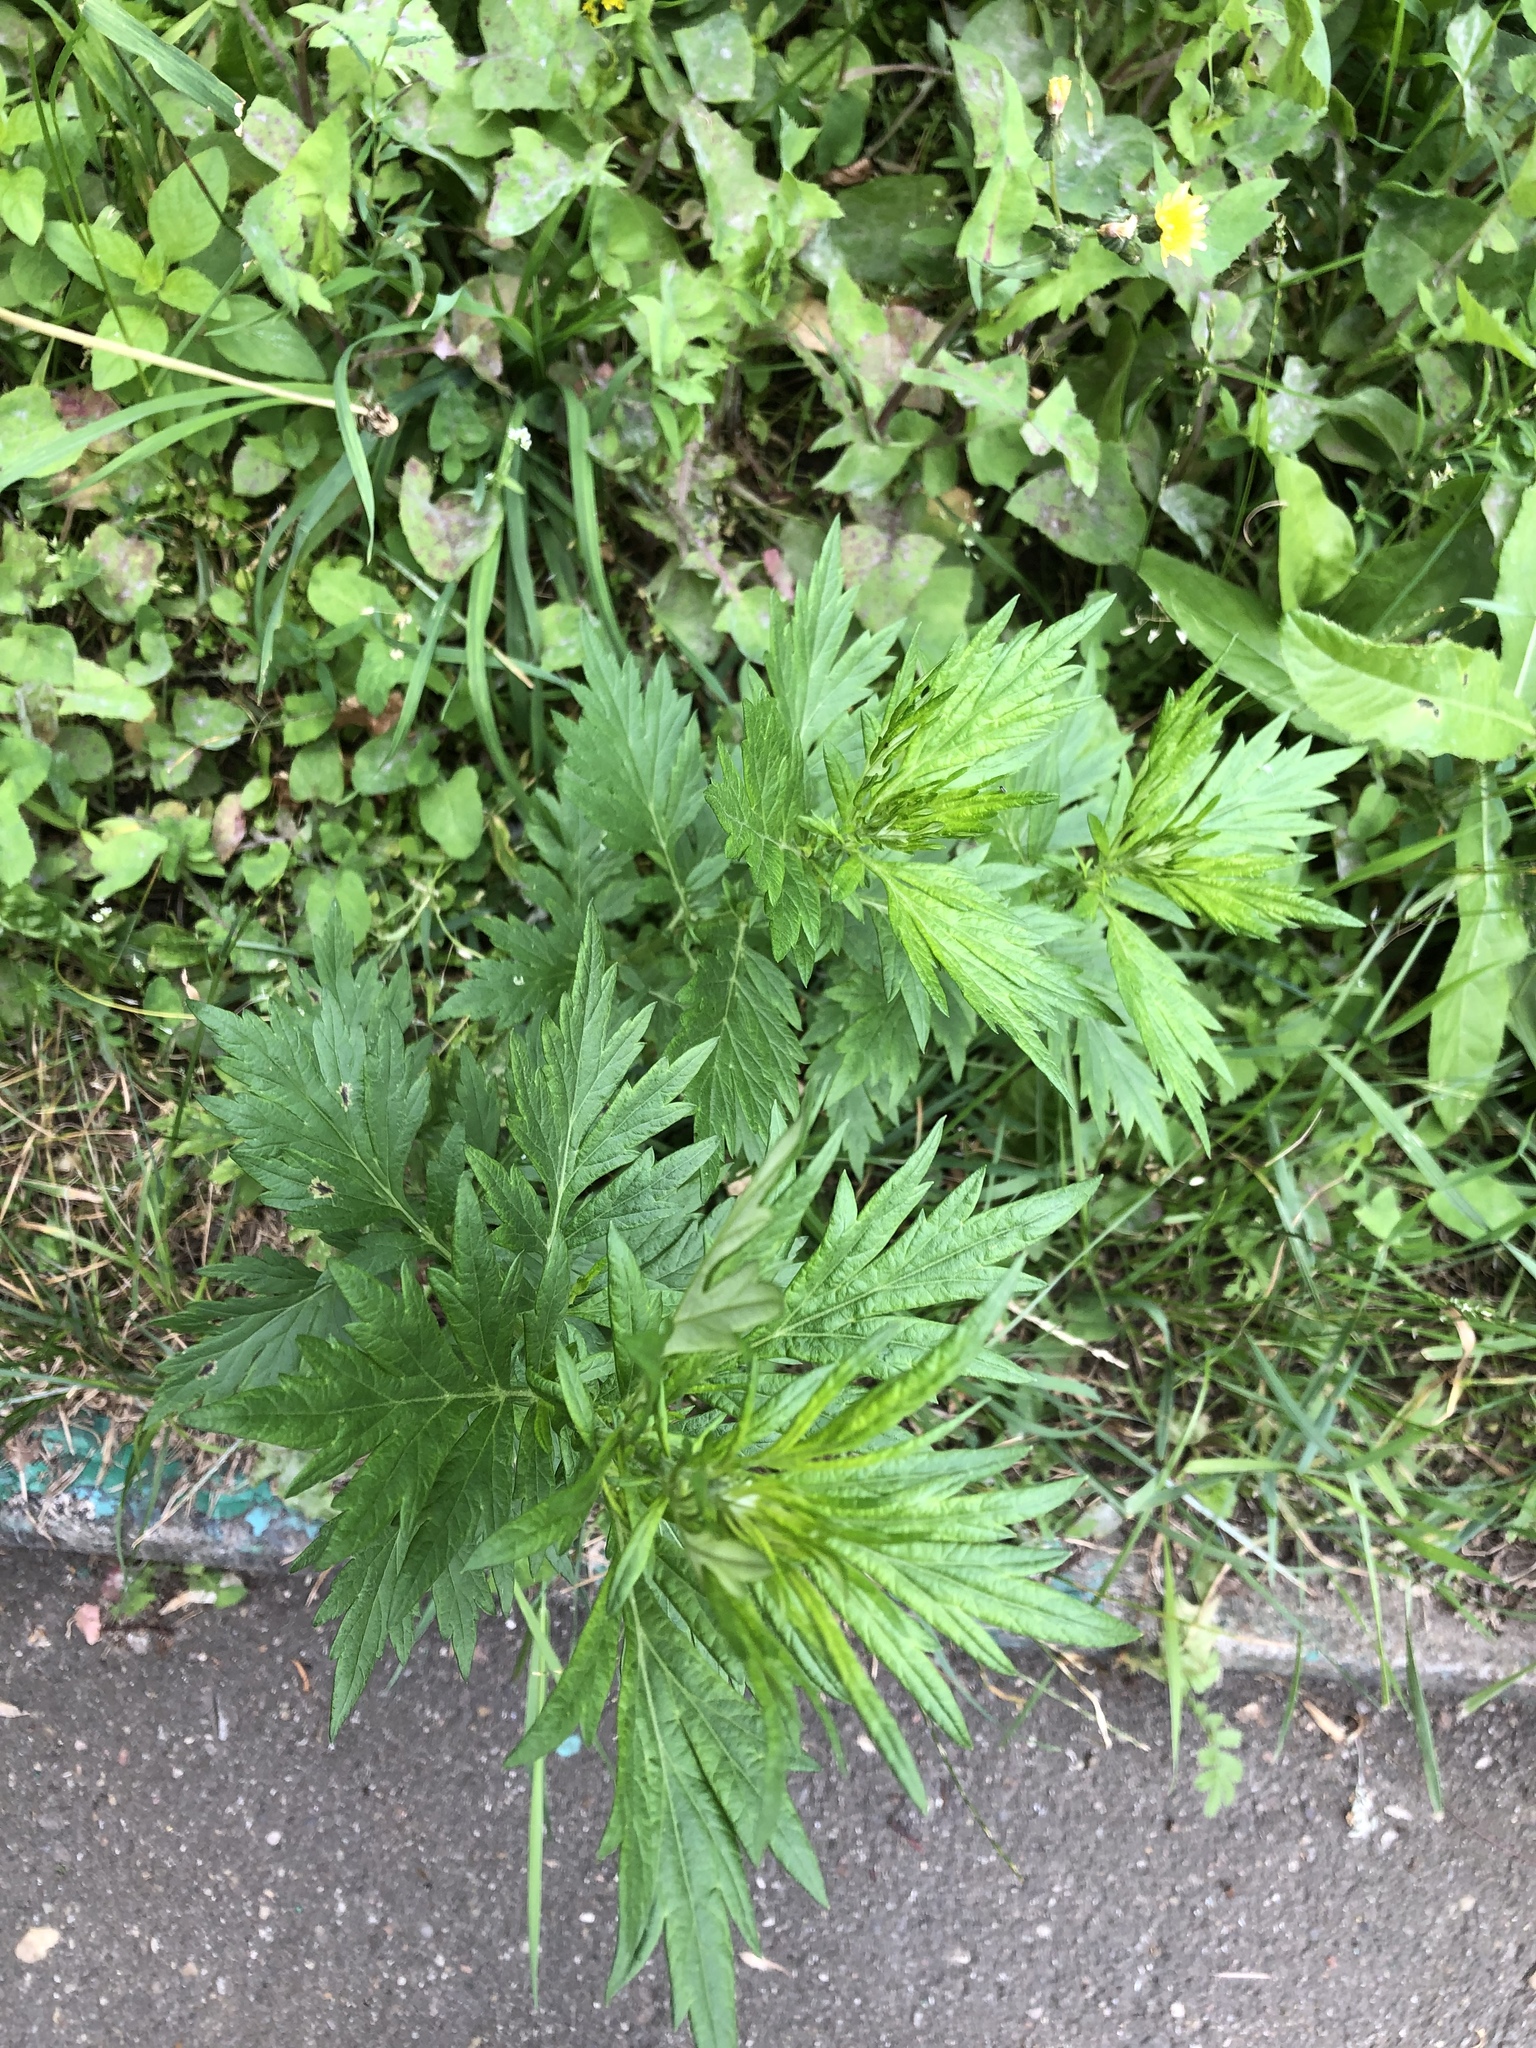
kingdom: Plantae
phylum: Tracheophyta
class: Magnoliopsida
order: Asterales
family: Asteraceae
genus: Artemisia
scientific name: Artemisia vulgaris
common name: Mugwort
